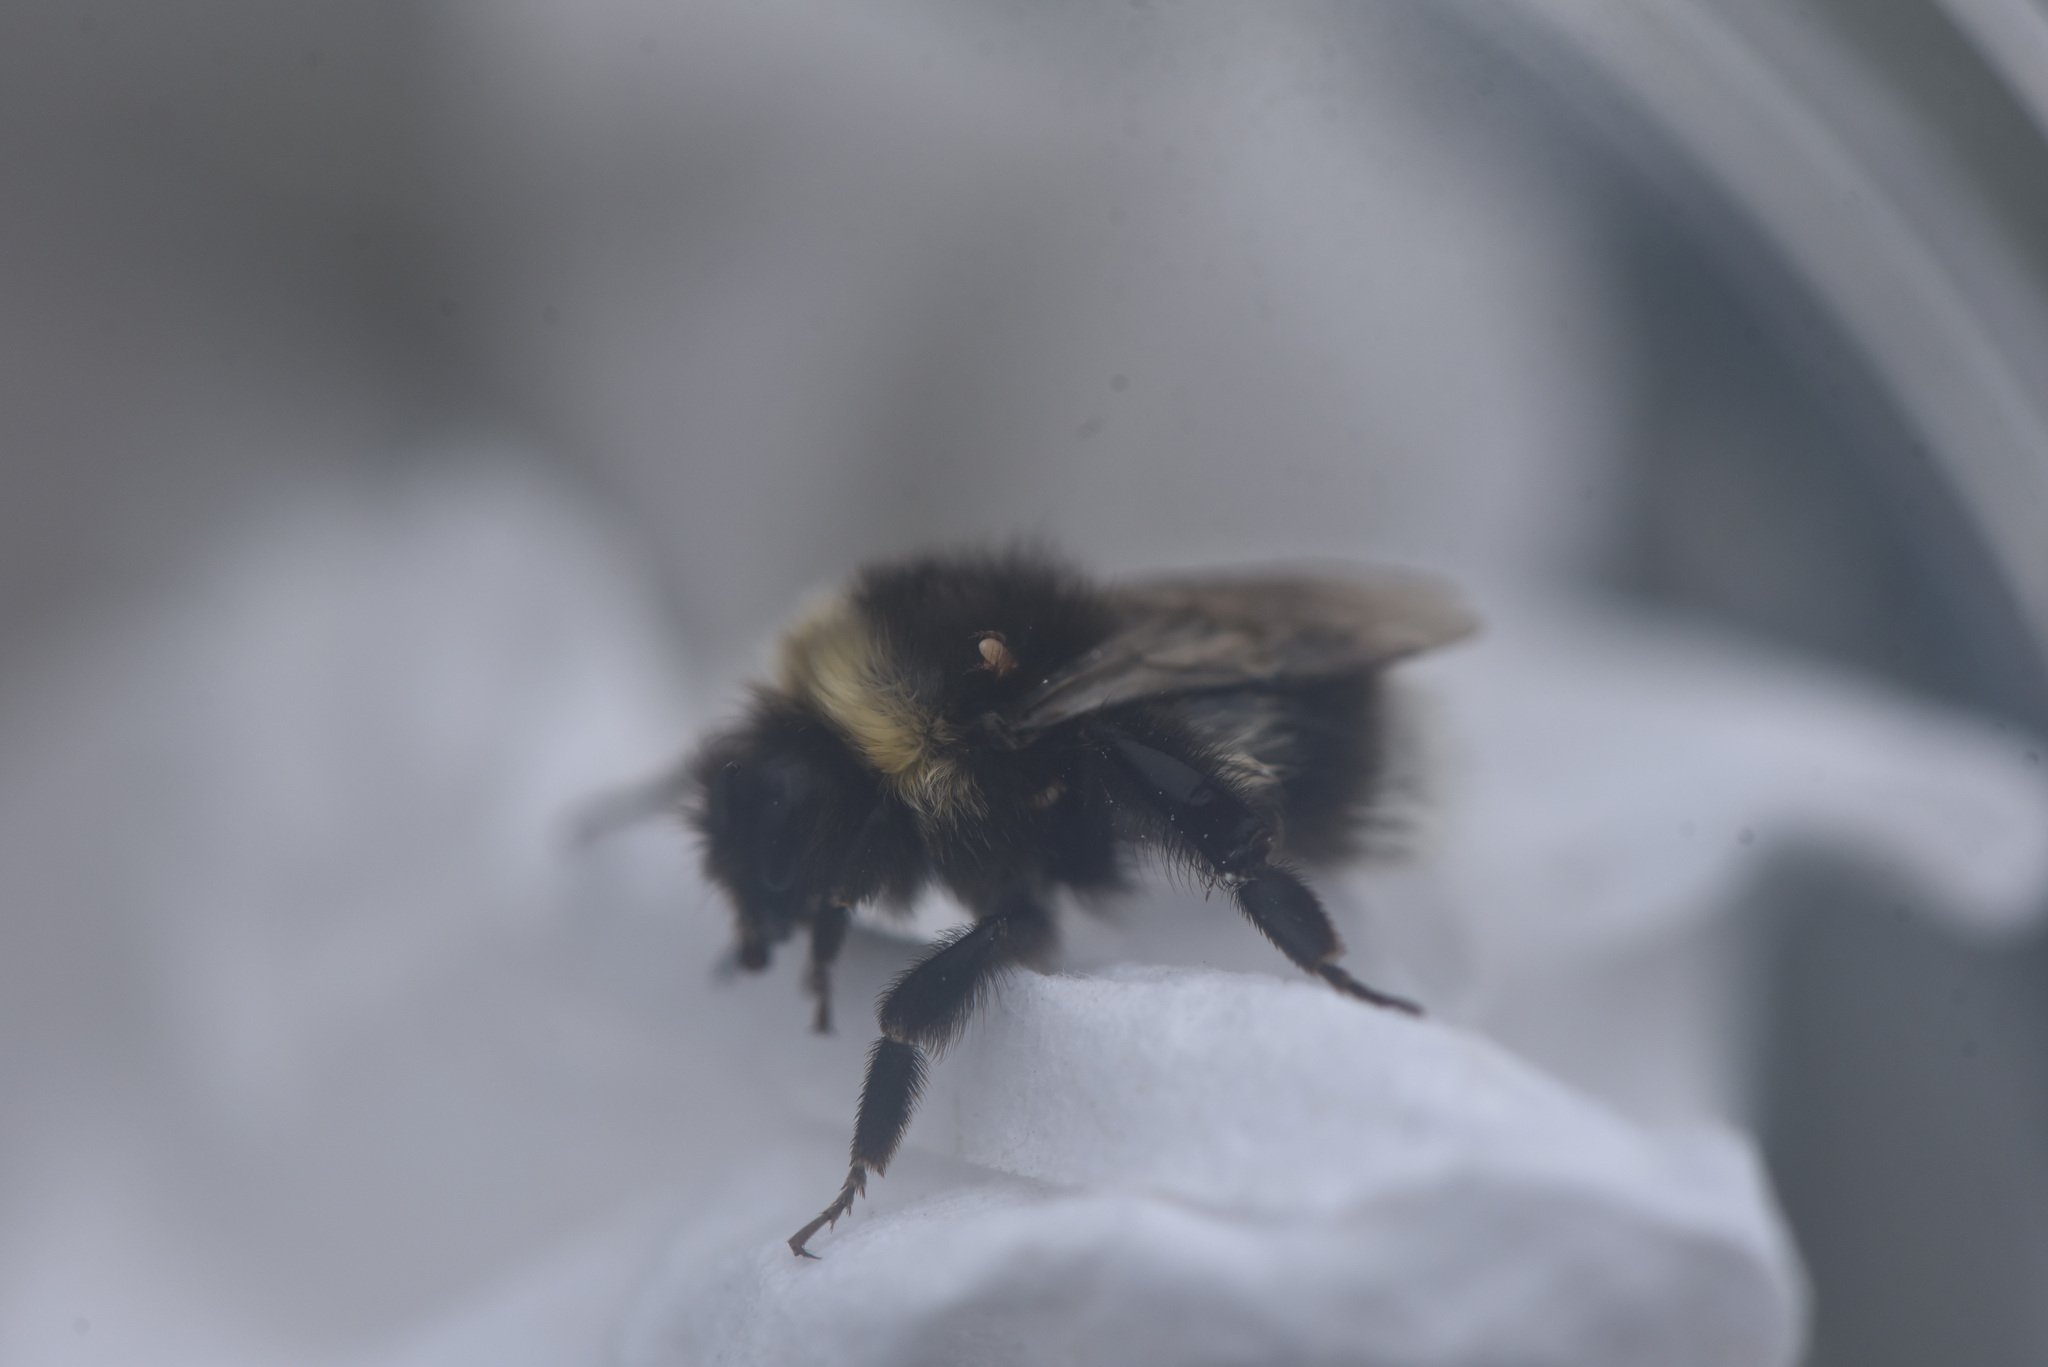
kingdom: Animalia
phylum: Arthropoda
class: Insecta
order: Hymenoptera
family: Apidae
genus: Bombus
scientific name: Bombus cryptarum
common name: Cryptic bumblebee
